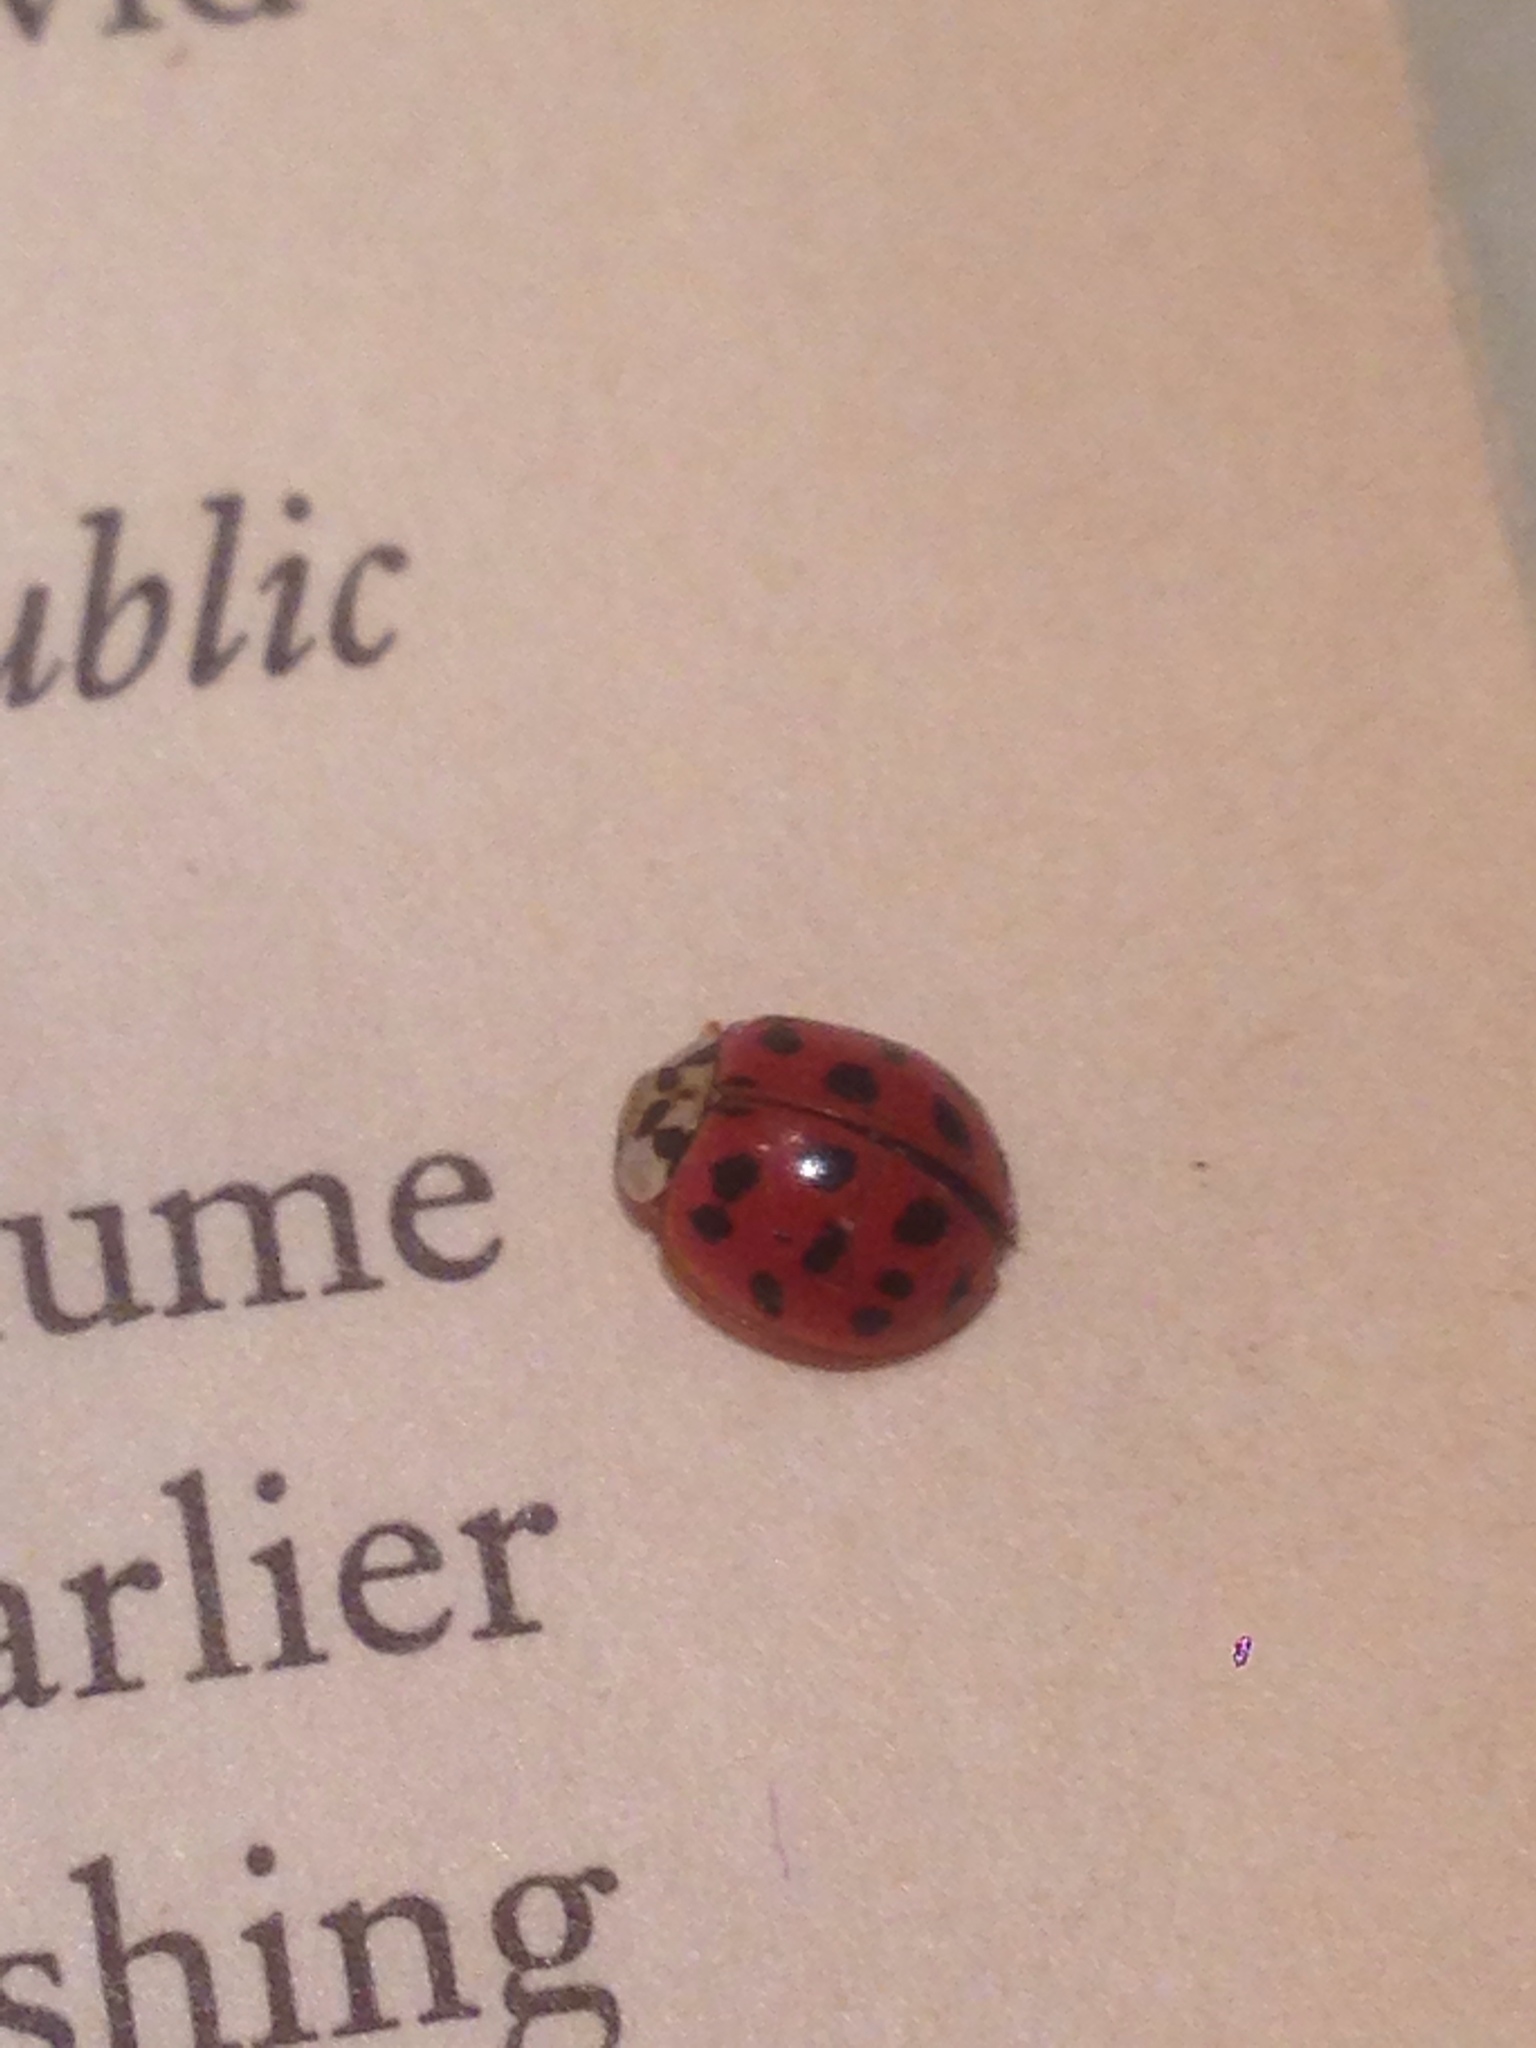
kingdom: Animalia
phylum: Arthropoda
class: Insecta
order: Coleoptera
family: Coccinellidae
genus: Harmonia
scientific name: Harmonia axyridis
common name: Harlequin ladybird
